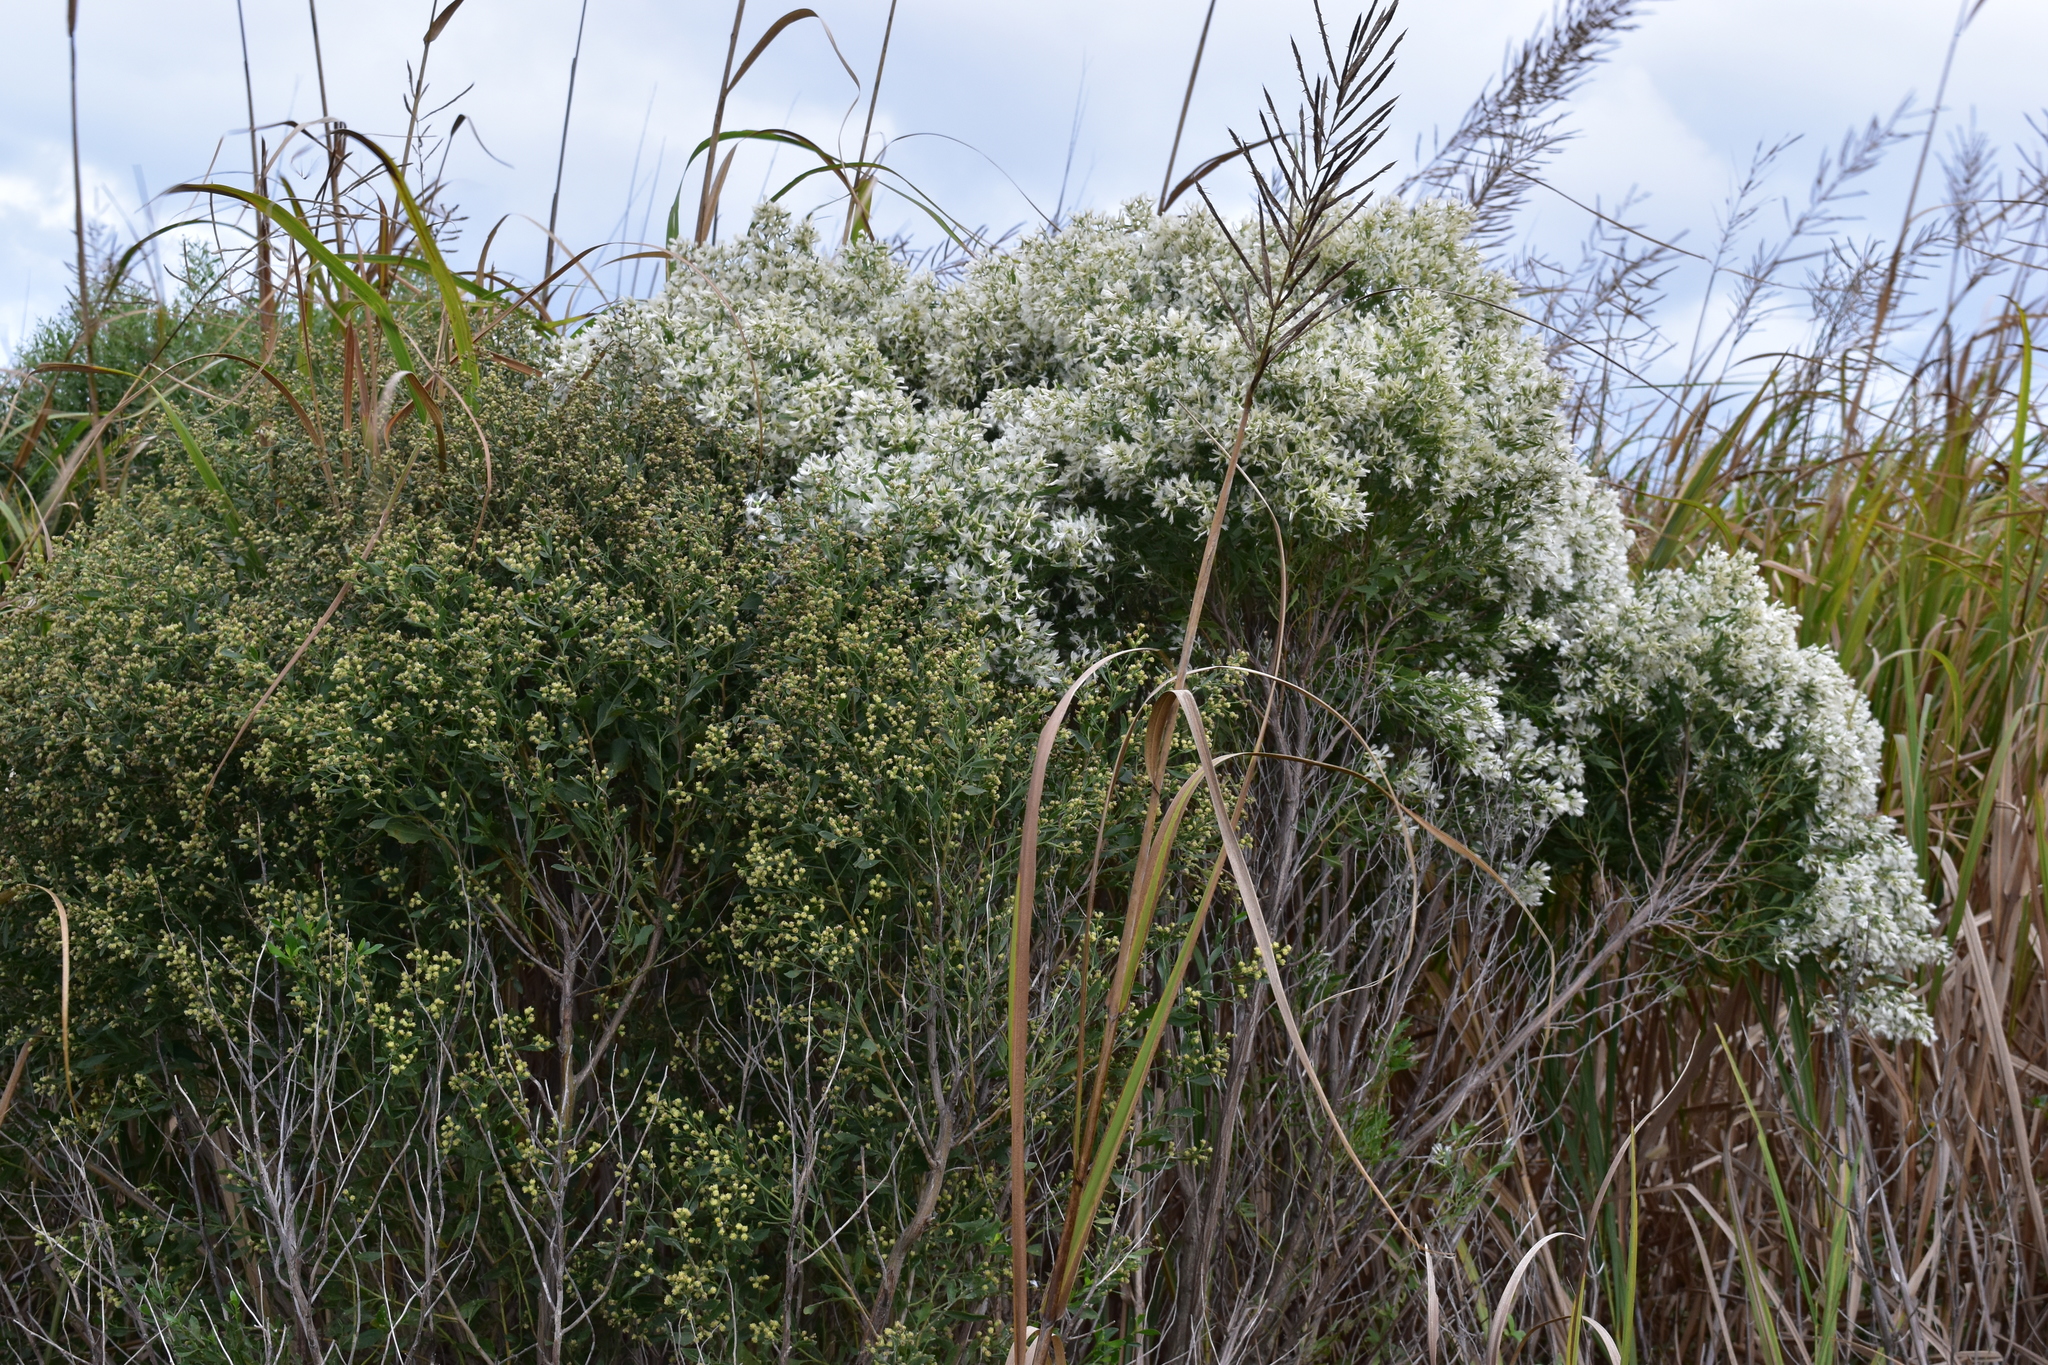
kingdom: Plantae
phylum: Tracheophyta
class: Magnoliopsida
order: Asterales
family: Asteraceae
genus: Baccharis
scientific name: Baccharis halimifolia
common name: Eastern baccharis
